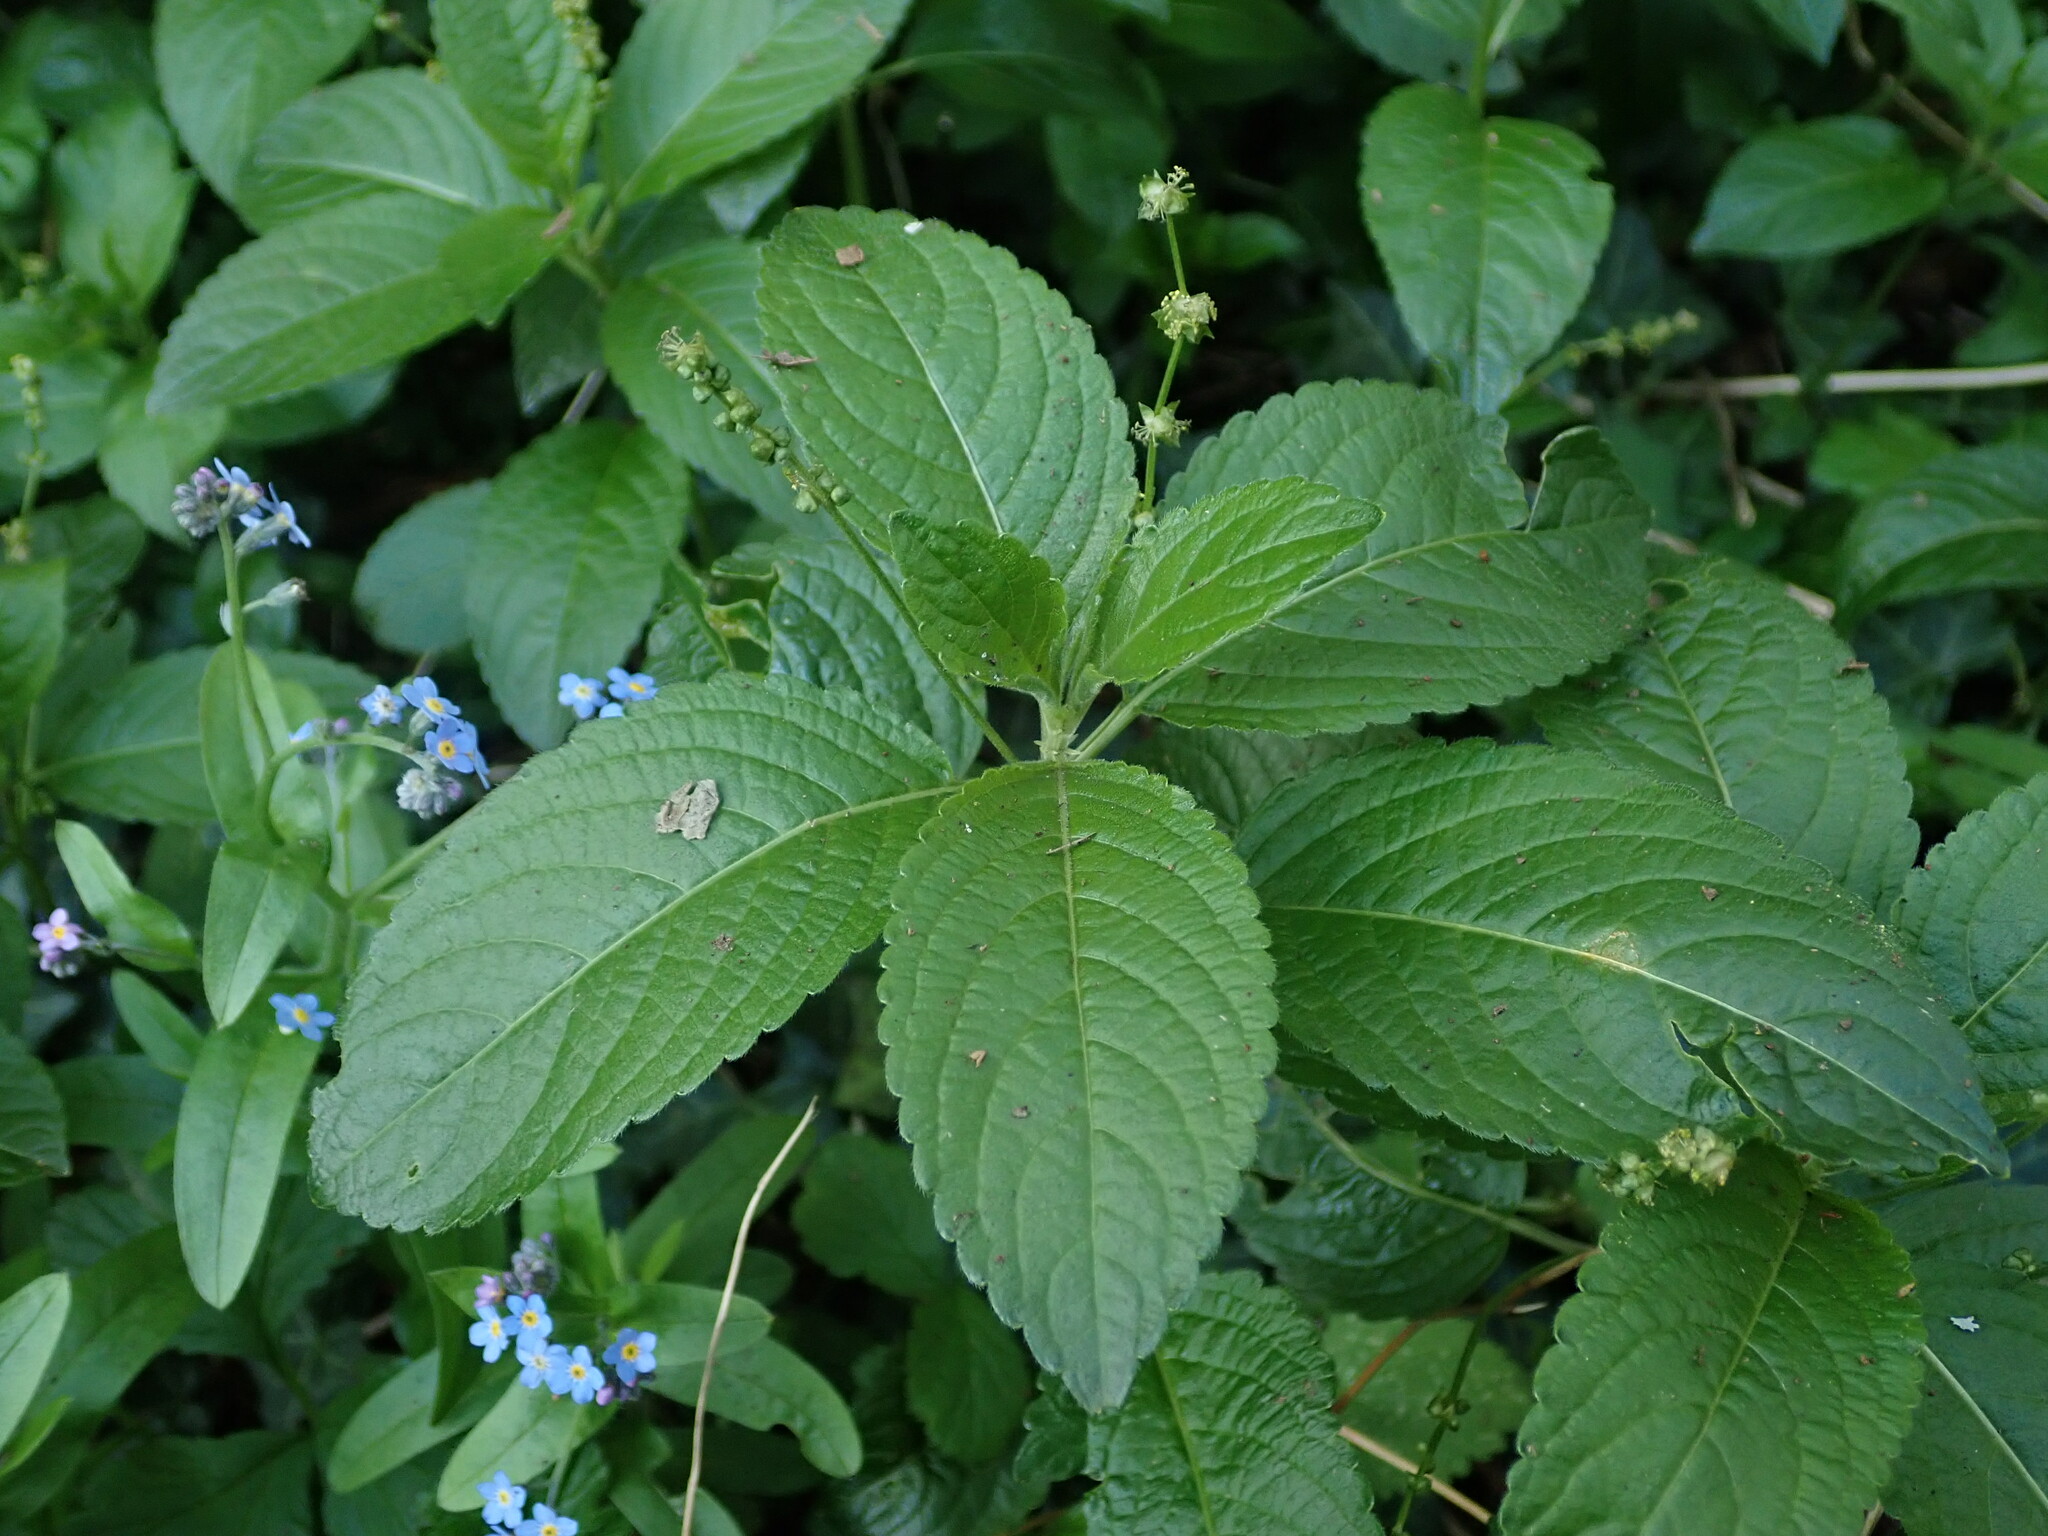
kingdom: Plantae
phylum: Tracheophyta
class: Magnoliopsida
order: Malpighiales
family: Euphorbiaceae
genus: Mercurialis
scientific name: Mercurialis perennis
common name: Dog mercury
